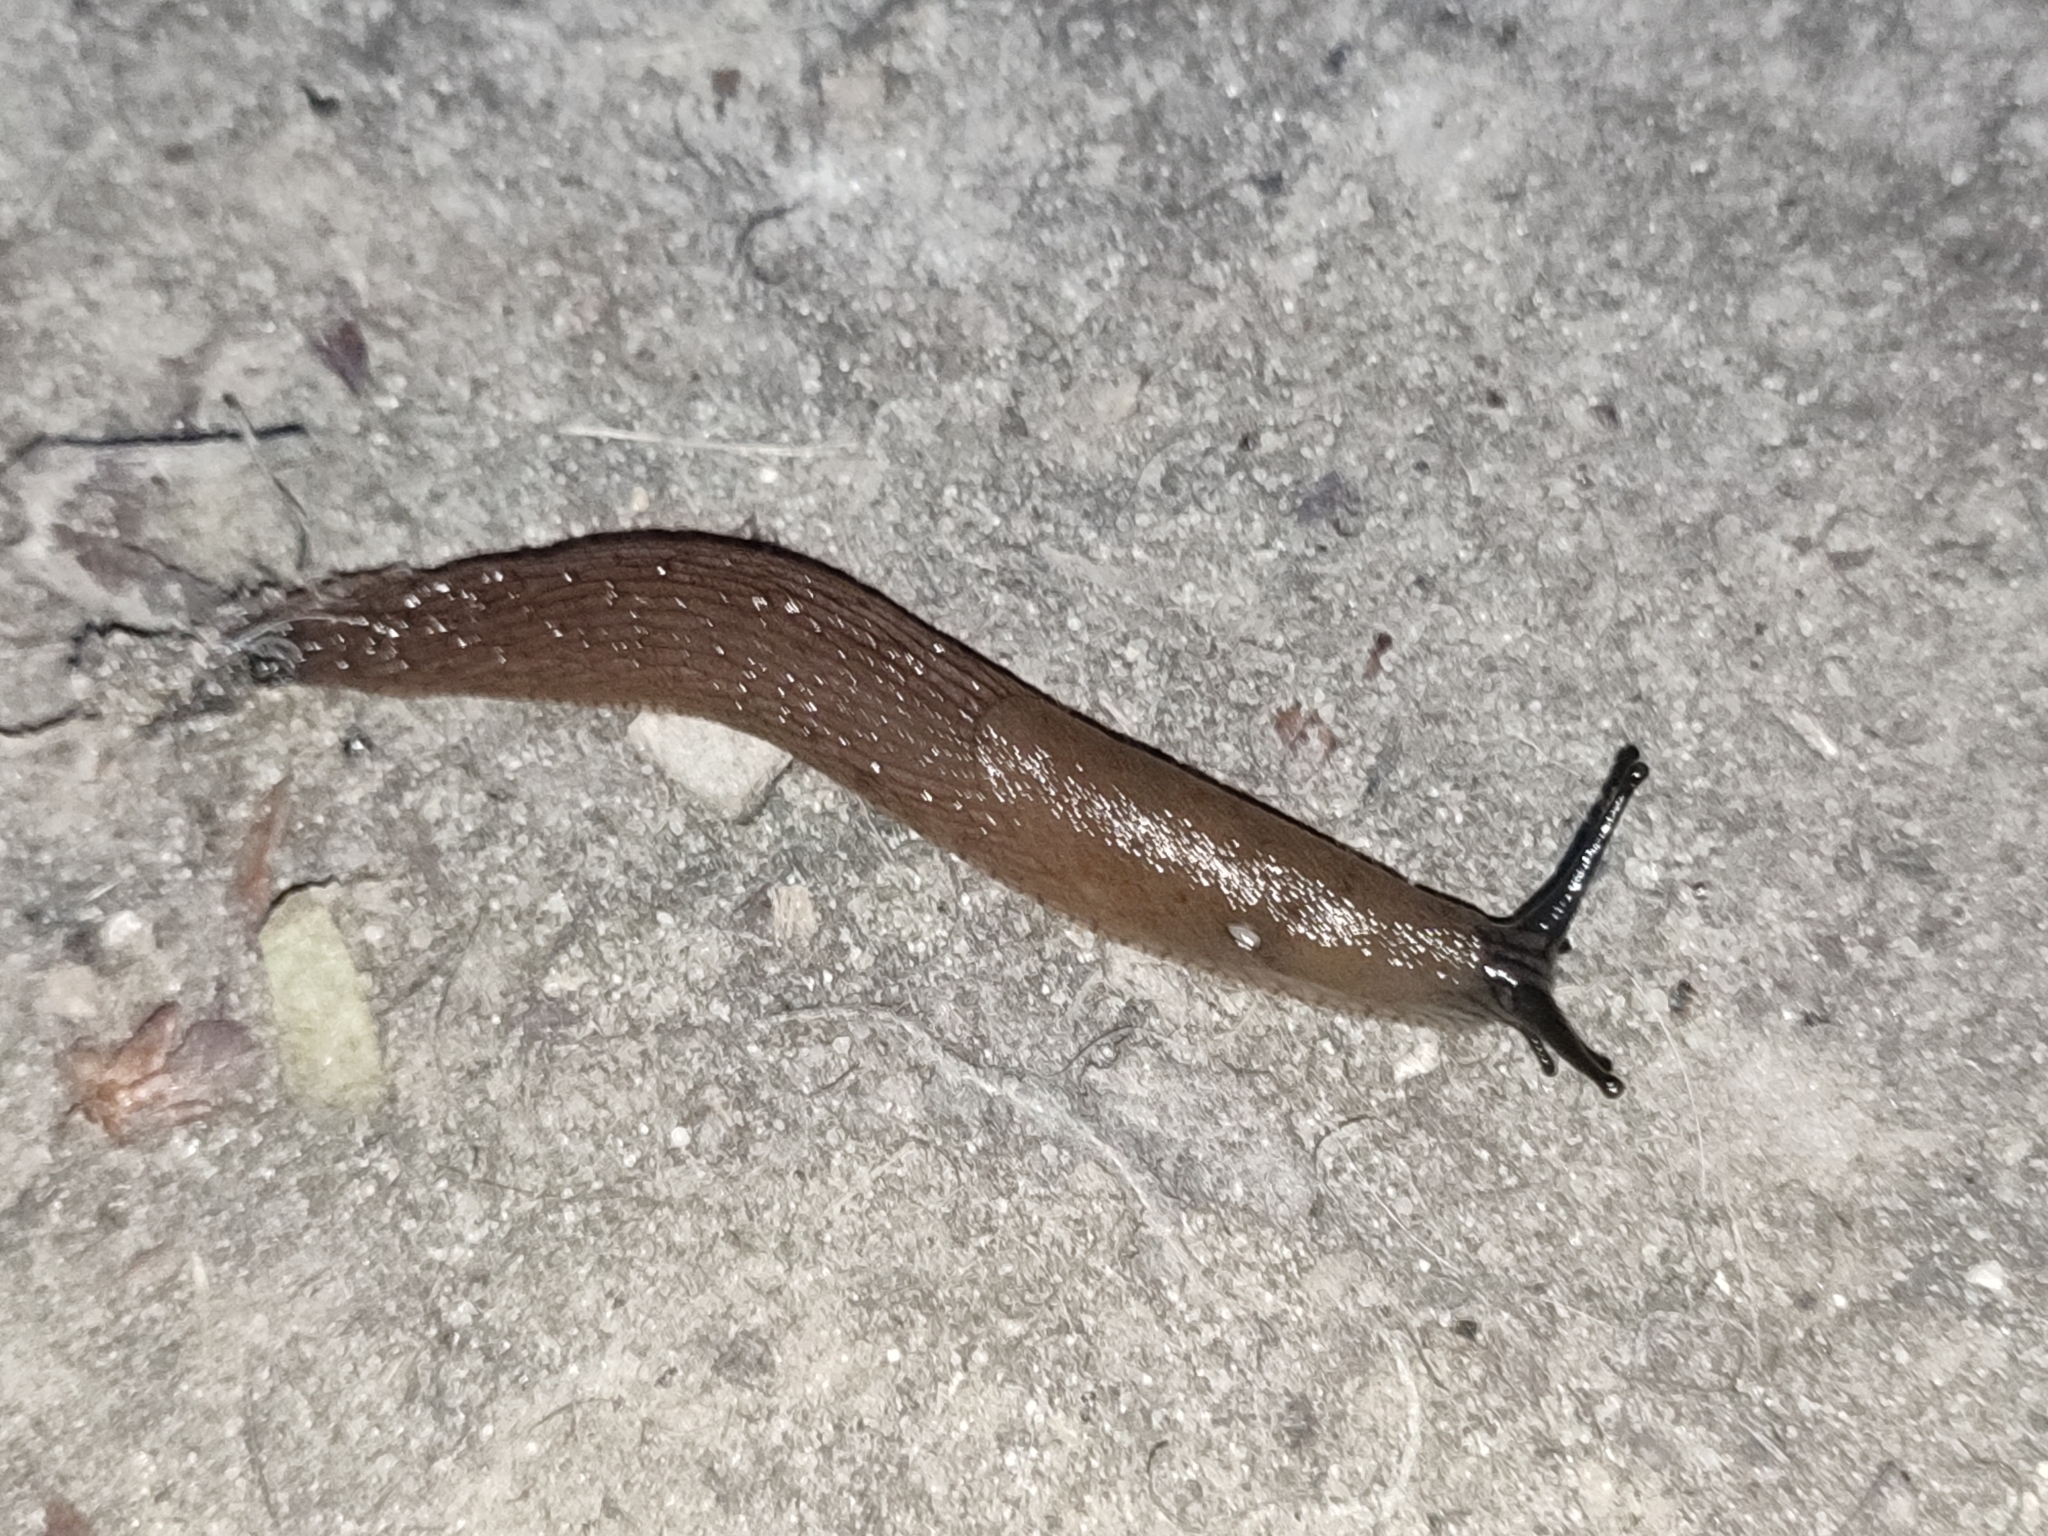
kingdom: Animalia
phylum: Mollusca
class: Gastropoda
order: Stylommatophora
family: Arionidae
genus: Arion
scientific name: Arion vulgaris
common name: Lusitanian slug
